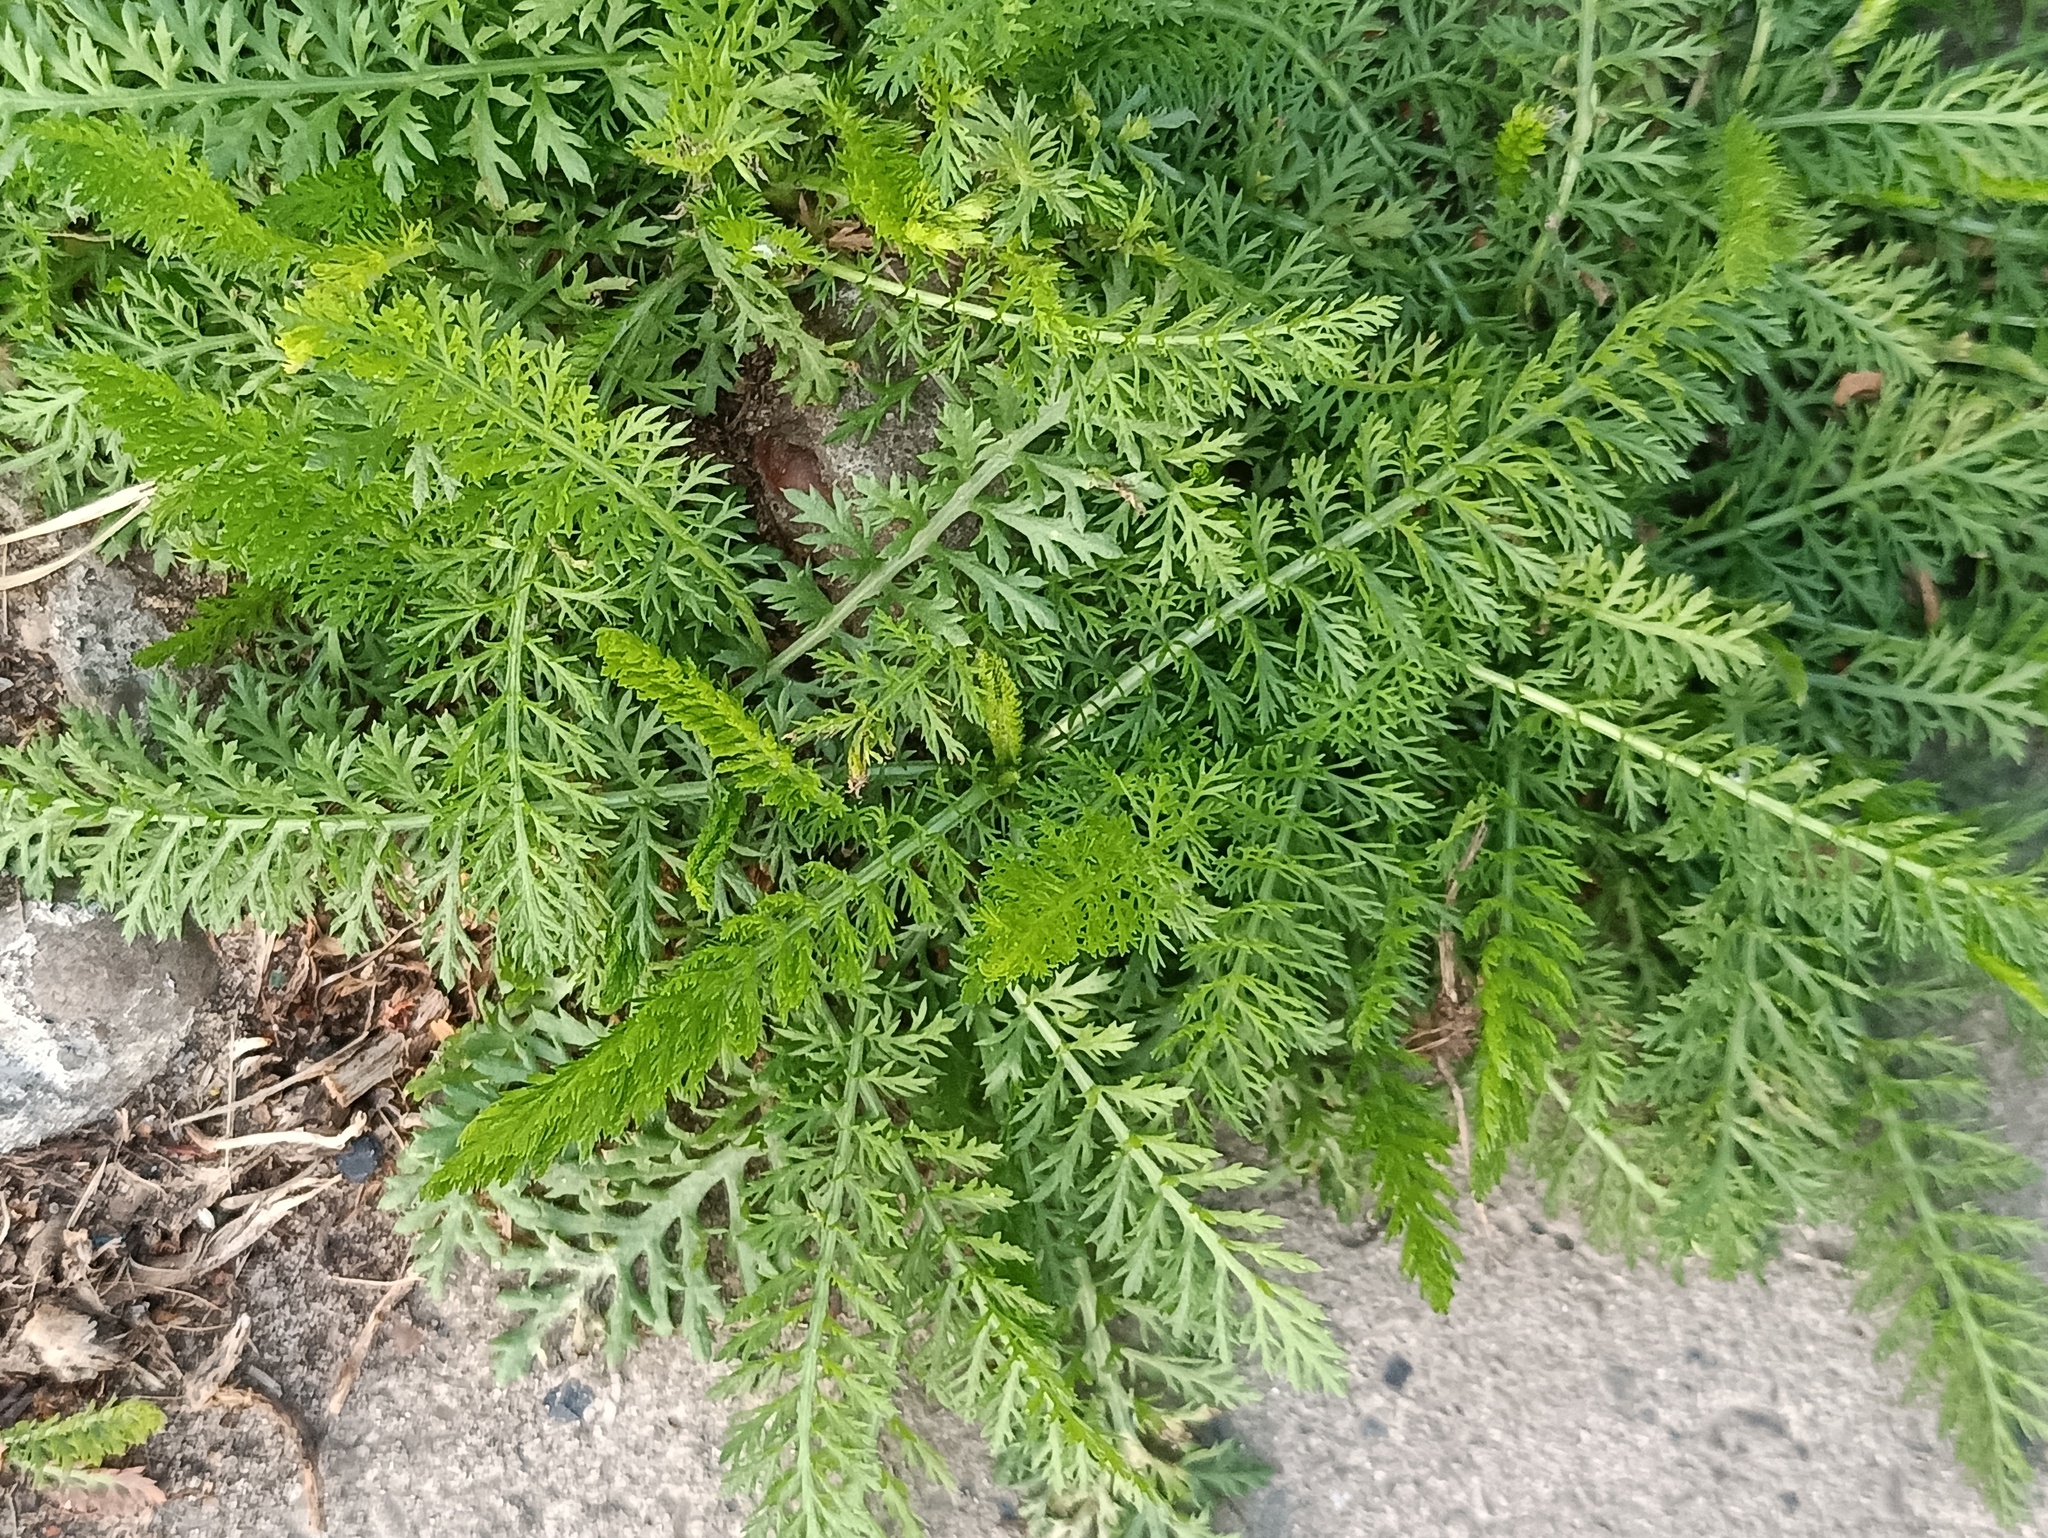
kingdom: Plantae
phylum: Tracheophyta
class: Magnoliopsida
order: Asterales
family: Asteraceae
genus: Achillea
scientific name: Achillea millefolium
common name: Yarrow
